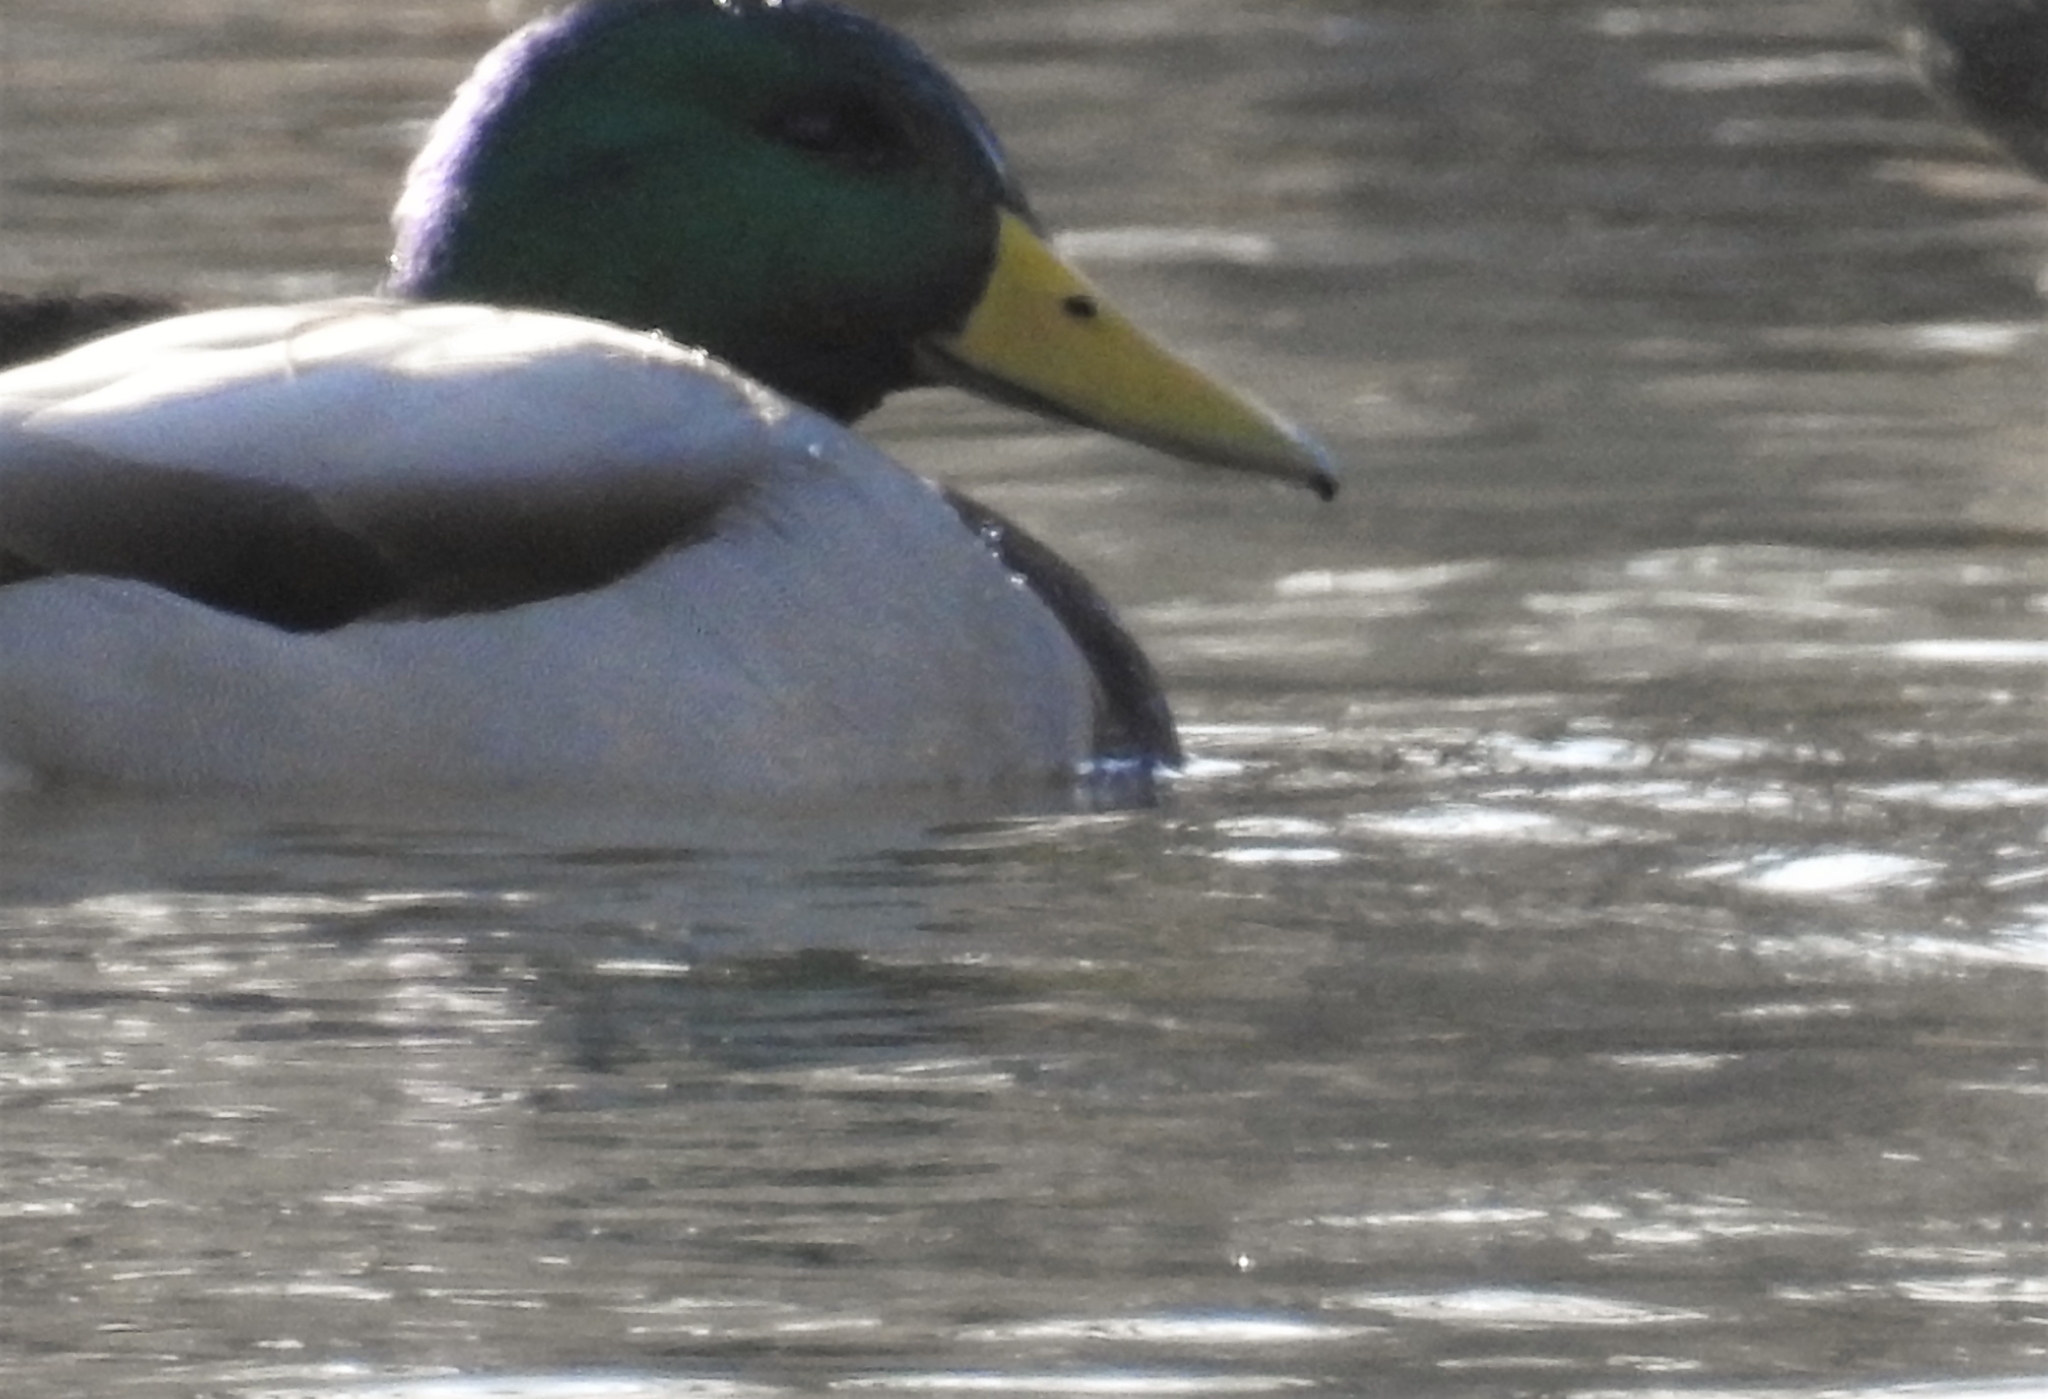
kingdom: Animalia
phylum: Chordata
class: Aves
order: Anseriformes
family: Anatidae
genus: Anas
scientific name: Anas platyrhynchos
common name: Mallard
